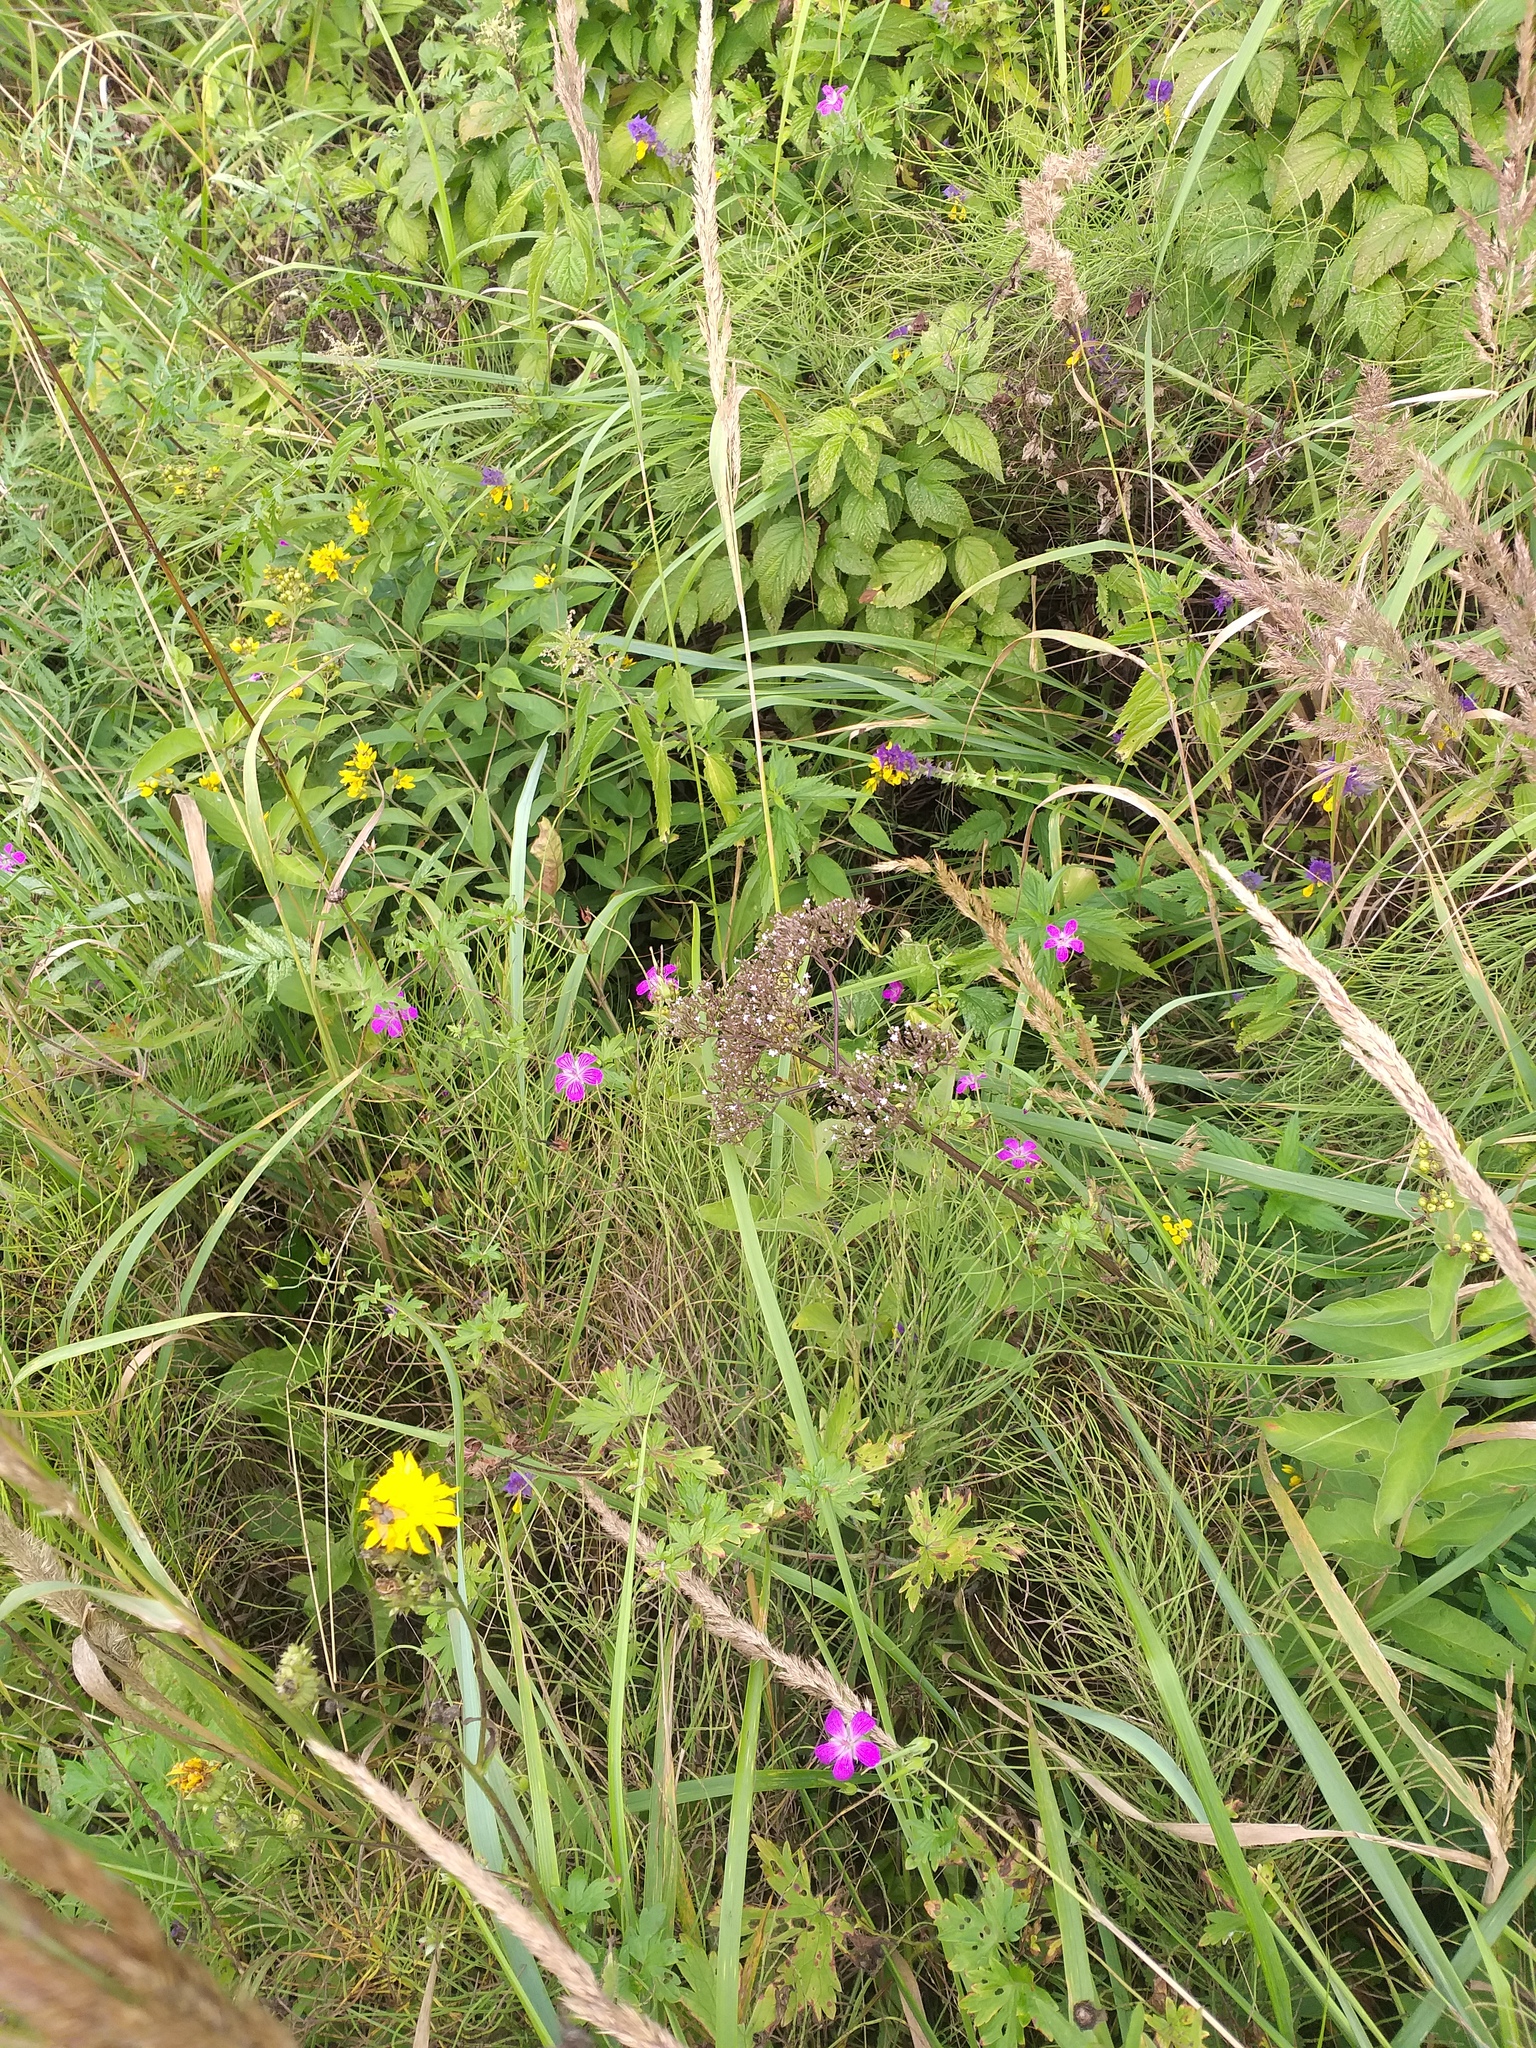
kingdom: Plantae
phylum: Tracheophyta
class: Magnoliopsida
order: Dipsacales
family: Caprifoliaceae
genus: Valeriana
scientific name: Valeriana officinalis
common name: Common valerian
